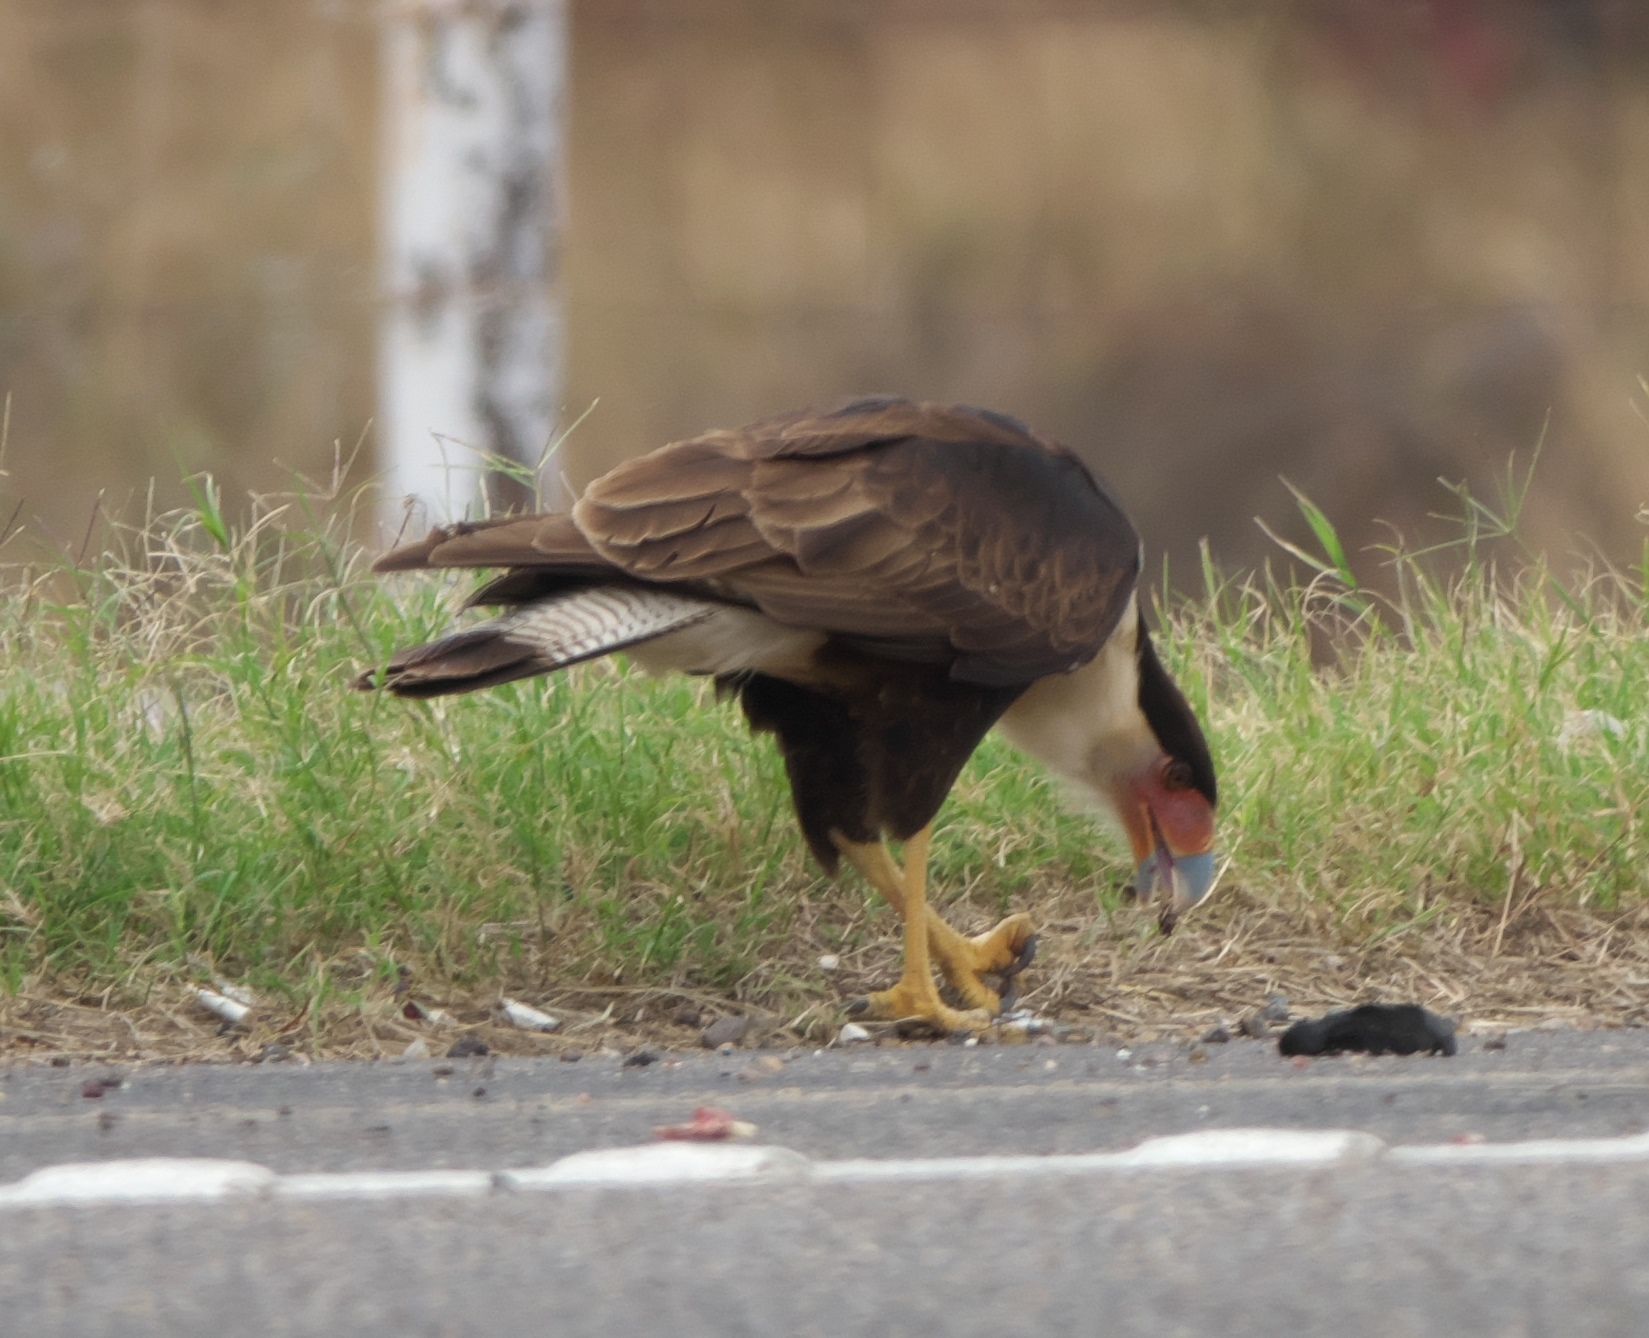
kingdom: Animalia
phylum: Chordata
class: Aves
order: Falconiformes
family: Falconidae
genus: Caracara
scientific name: Caracara plancus
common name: Southern caracara
